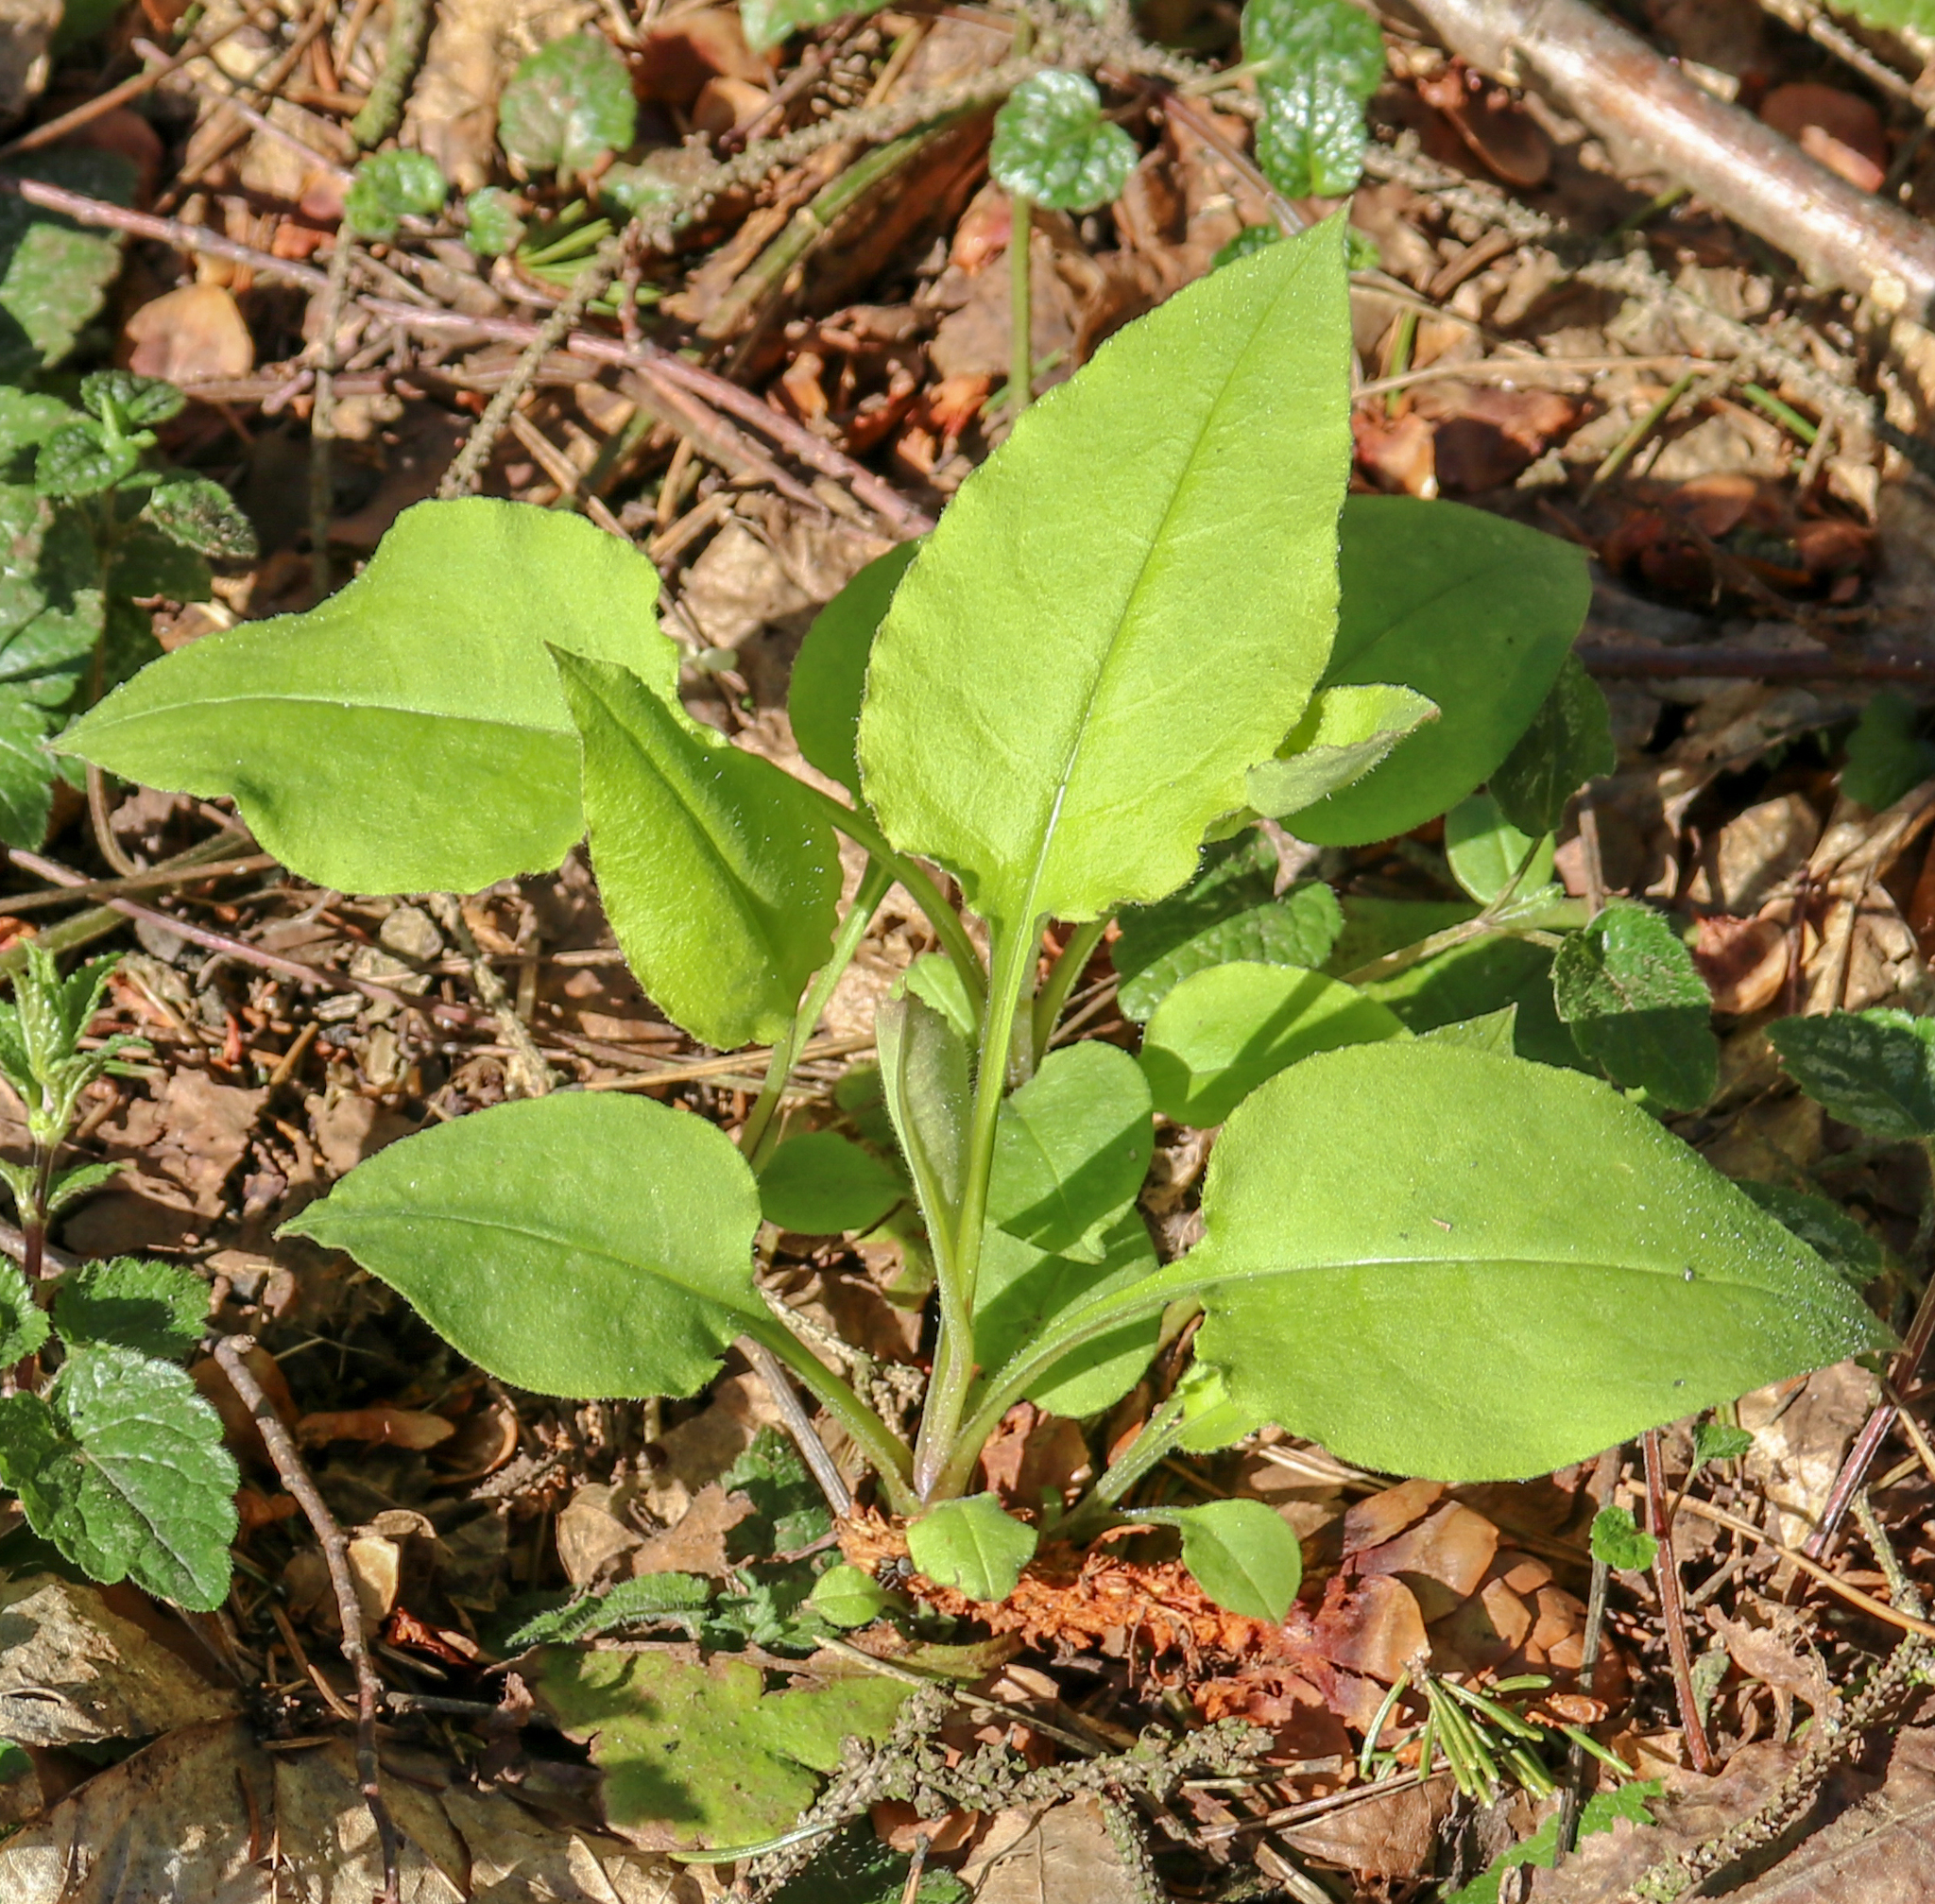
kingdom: Plantae
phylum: Tracheophyta
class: Magnoliopsida
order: Boraginales
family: Boraginaceae
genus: Pulmonaria
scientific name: Pulmonaria obscura
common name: Suffolk lungwort
